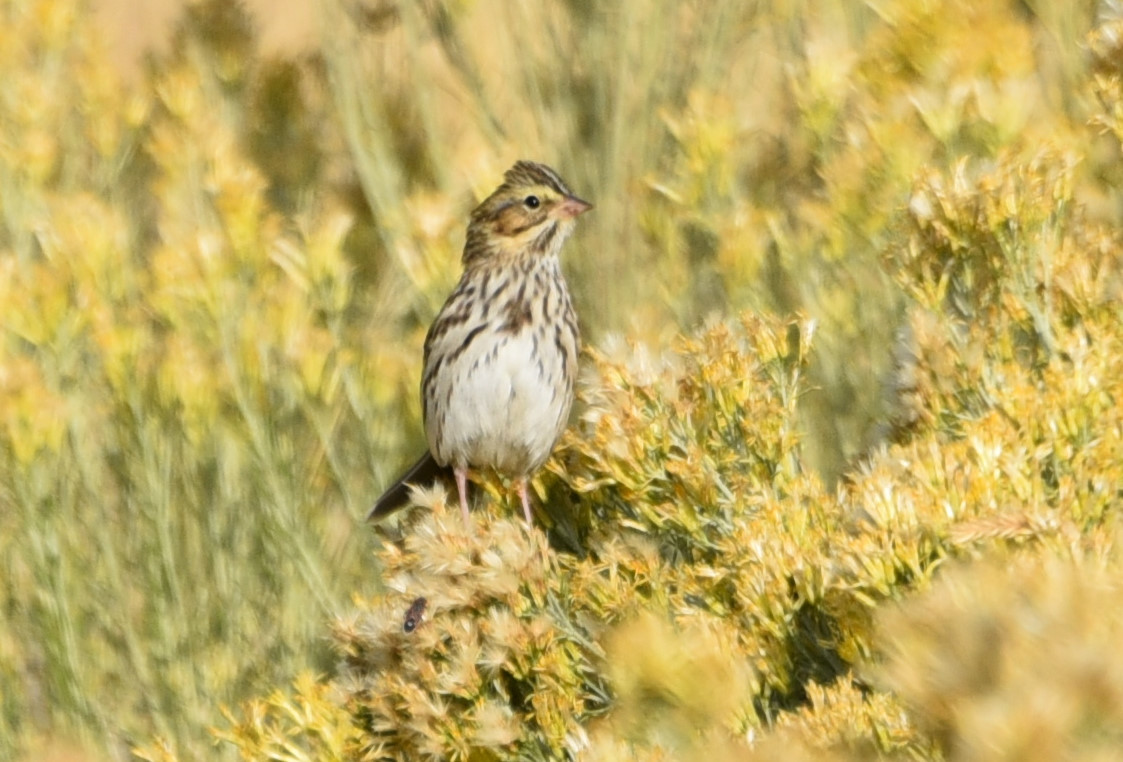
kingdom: Animalia
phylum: Chordata
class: Aves
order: Passeriformes
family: Passerellidae
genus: Passerculus
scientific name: Passerculus sandwichensis
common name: Savannah sparrow
